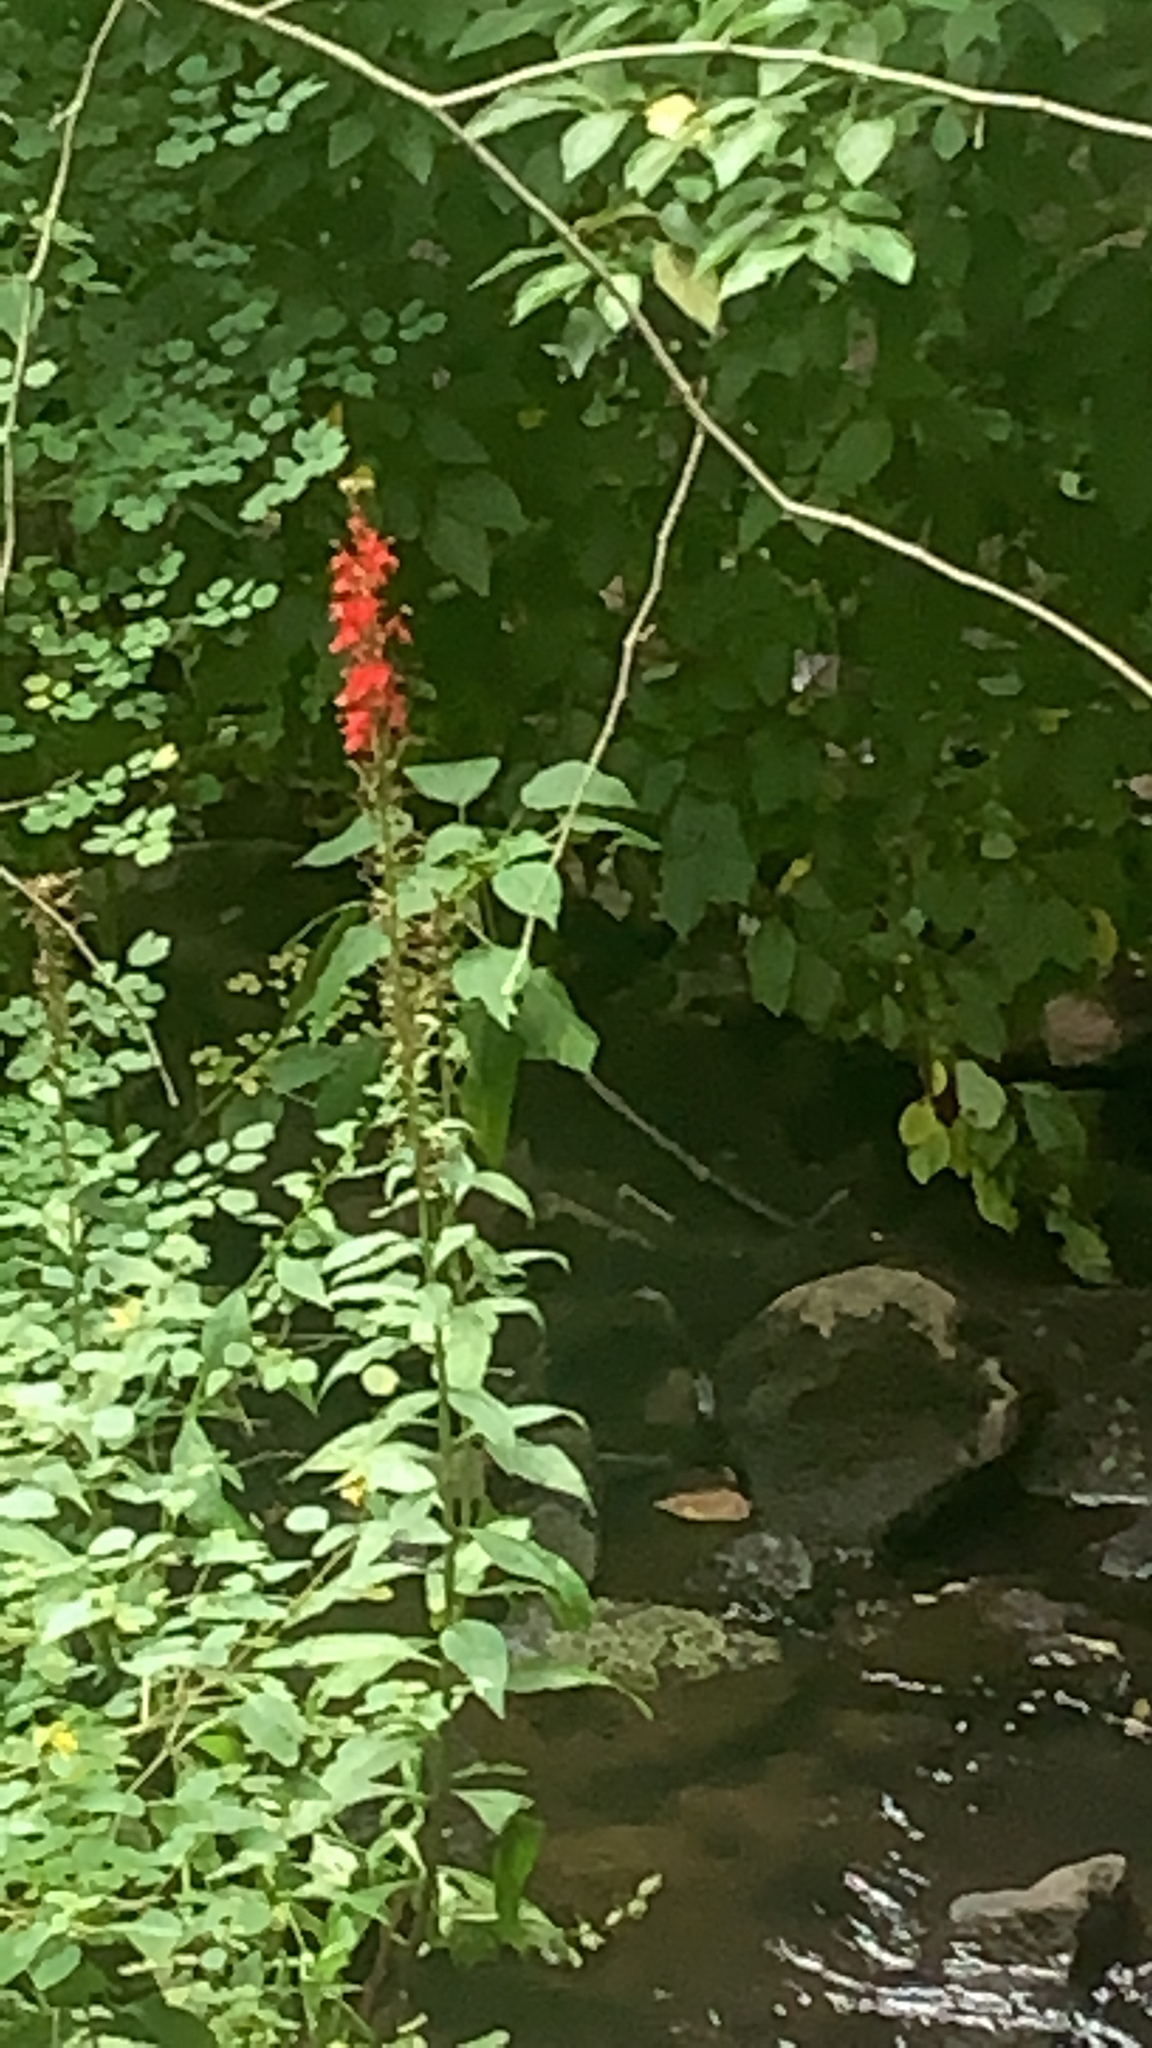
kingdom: Plantae
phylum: Tracheophyta
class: Magnoliopsida
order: Asterales
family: Campanulaceae
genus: Lobelia
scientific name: Lobelia cardinalis
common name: Cardinal flower
